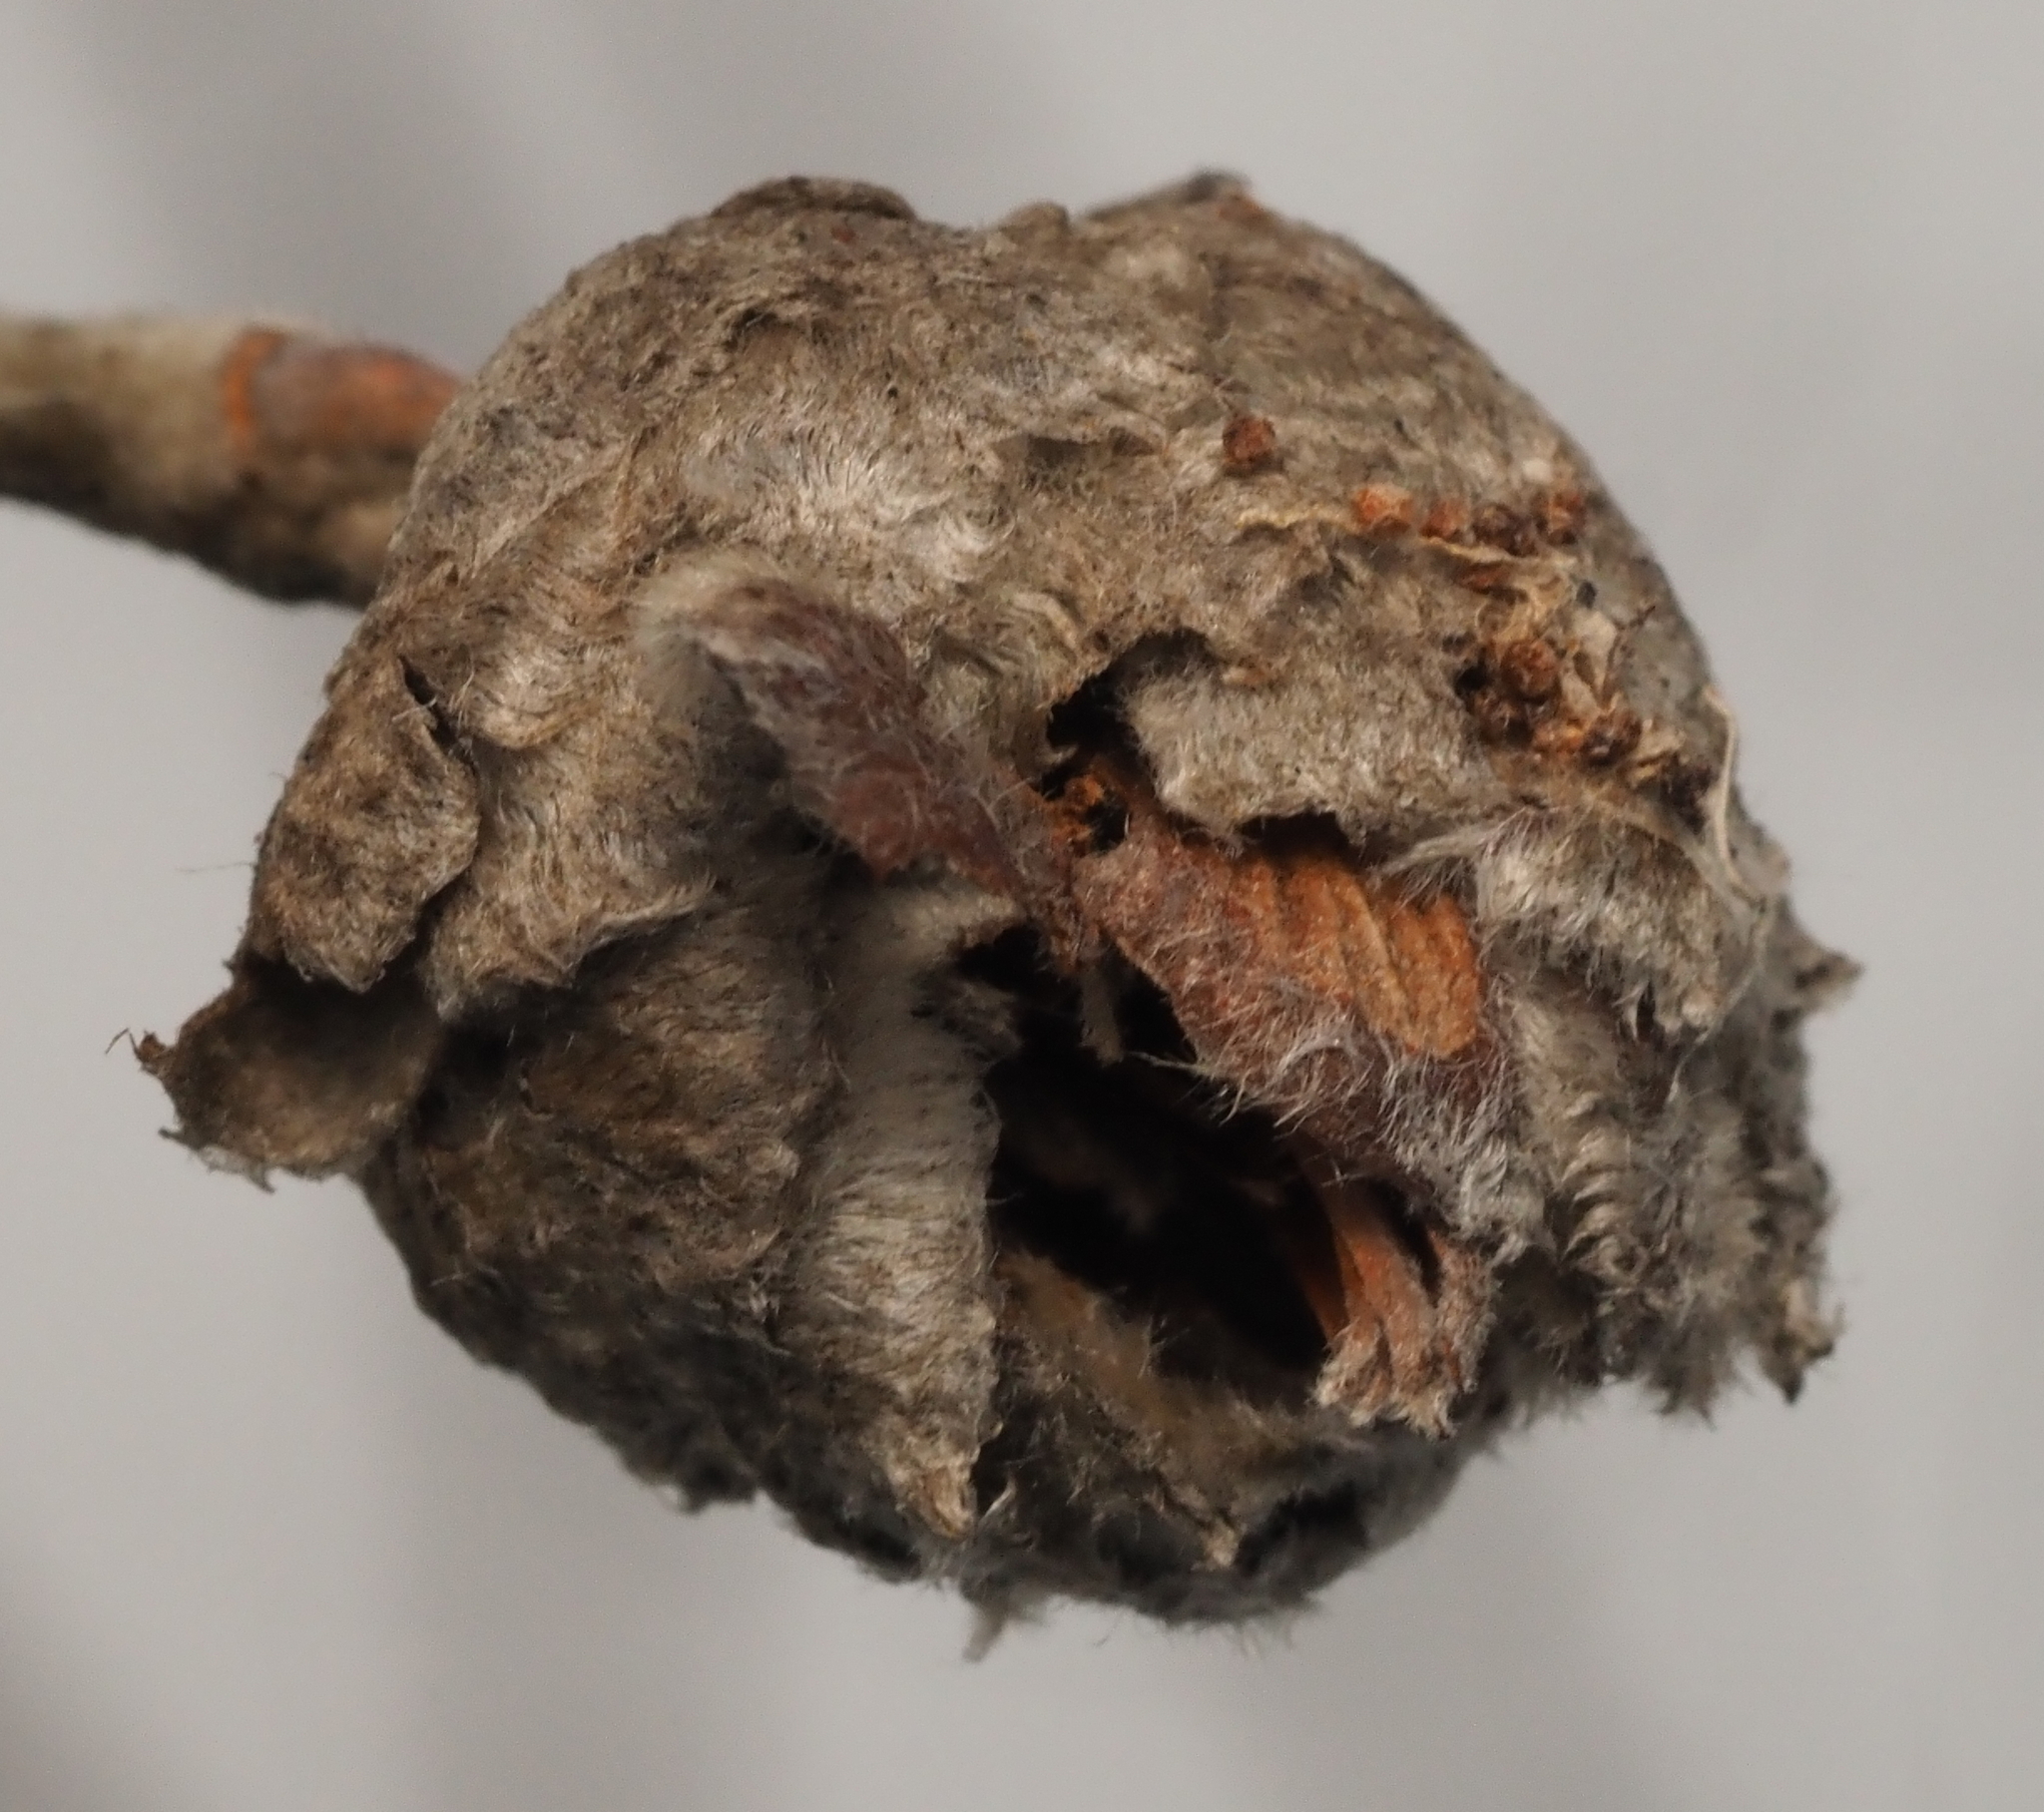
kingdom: Animalia
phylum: Arthropoda
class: Insecta
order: Diptera
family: Cecidomyiidae
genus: Rabdophaga
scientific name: Rabdophaga strobiloides
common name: Willow pinecone gall midge
